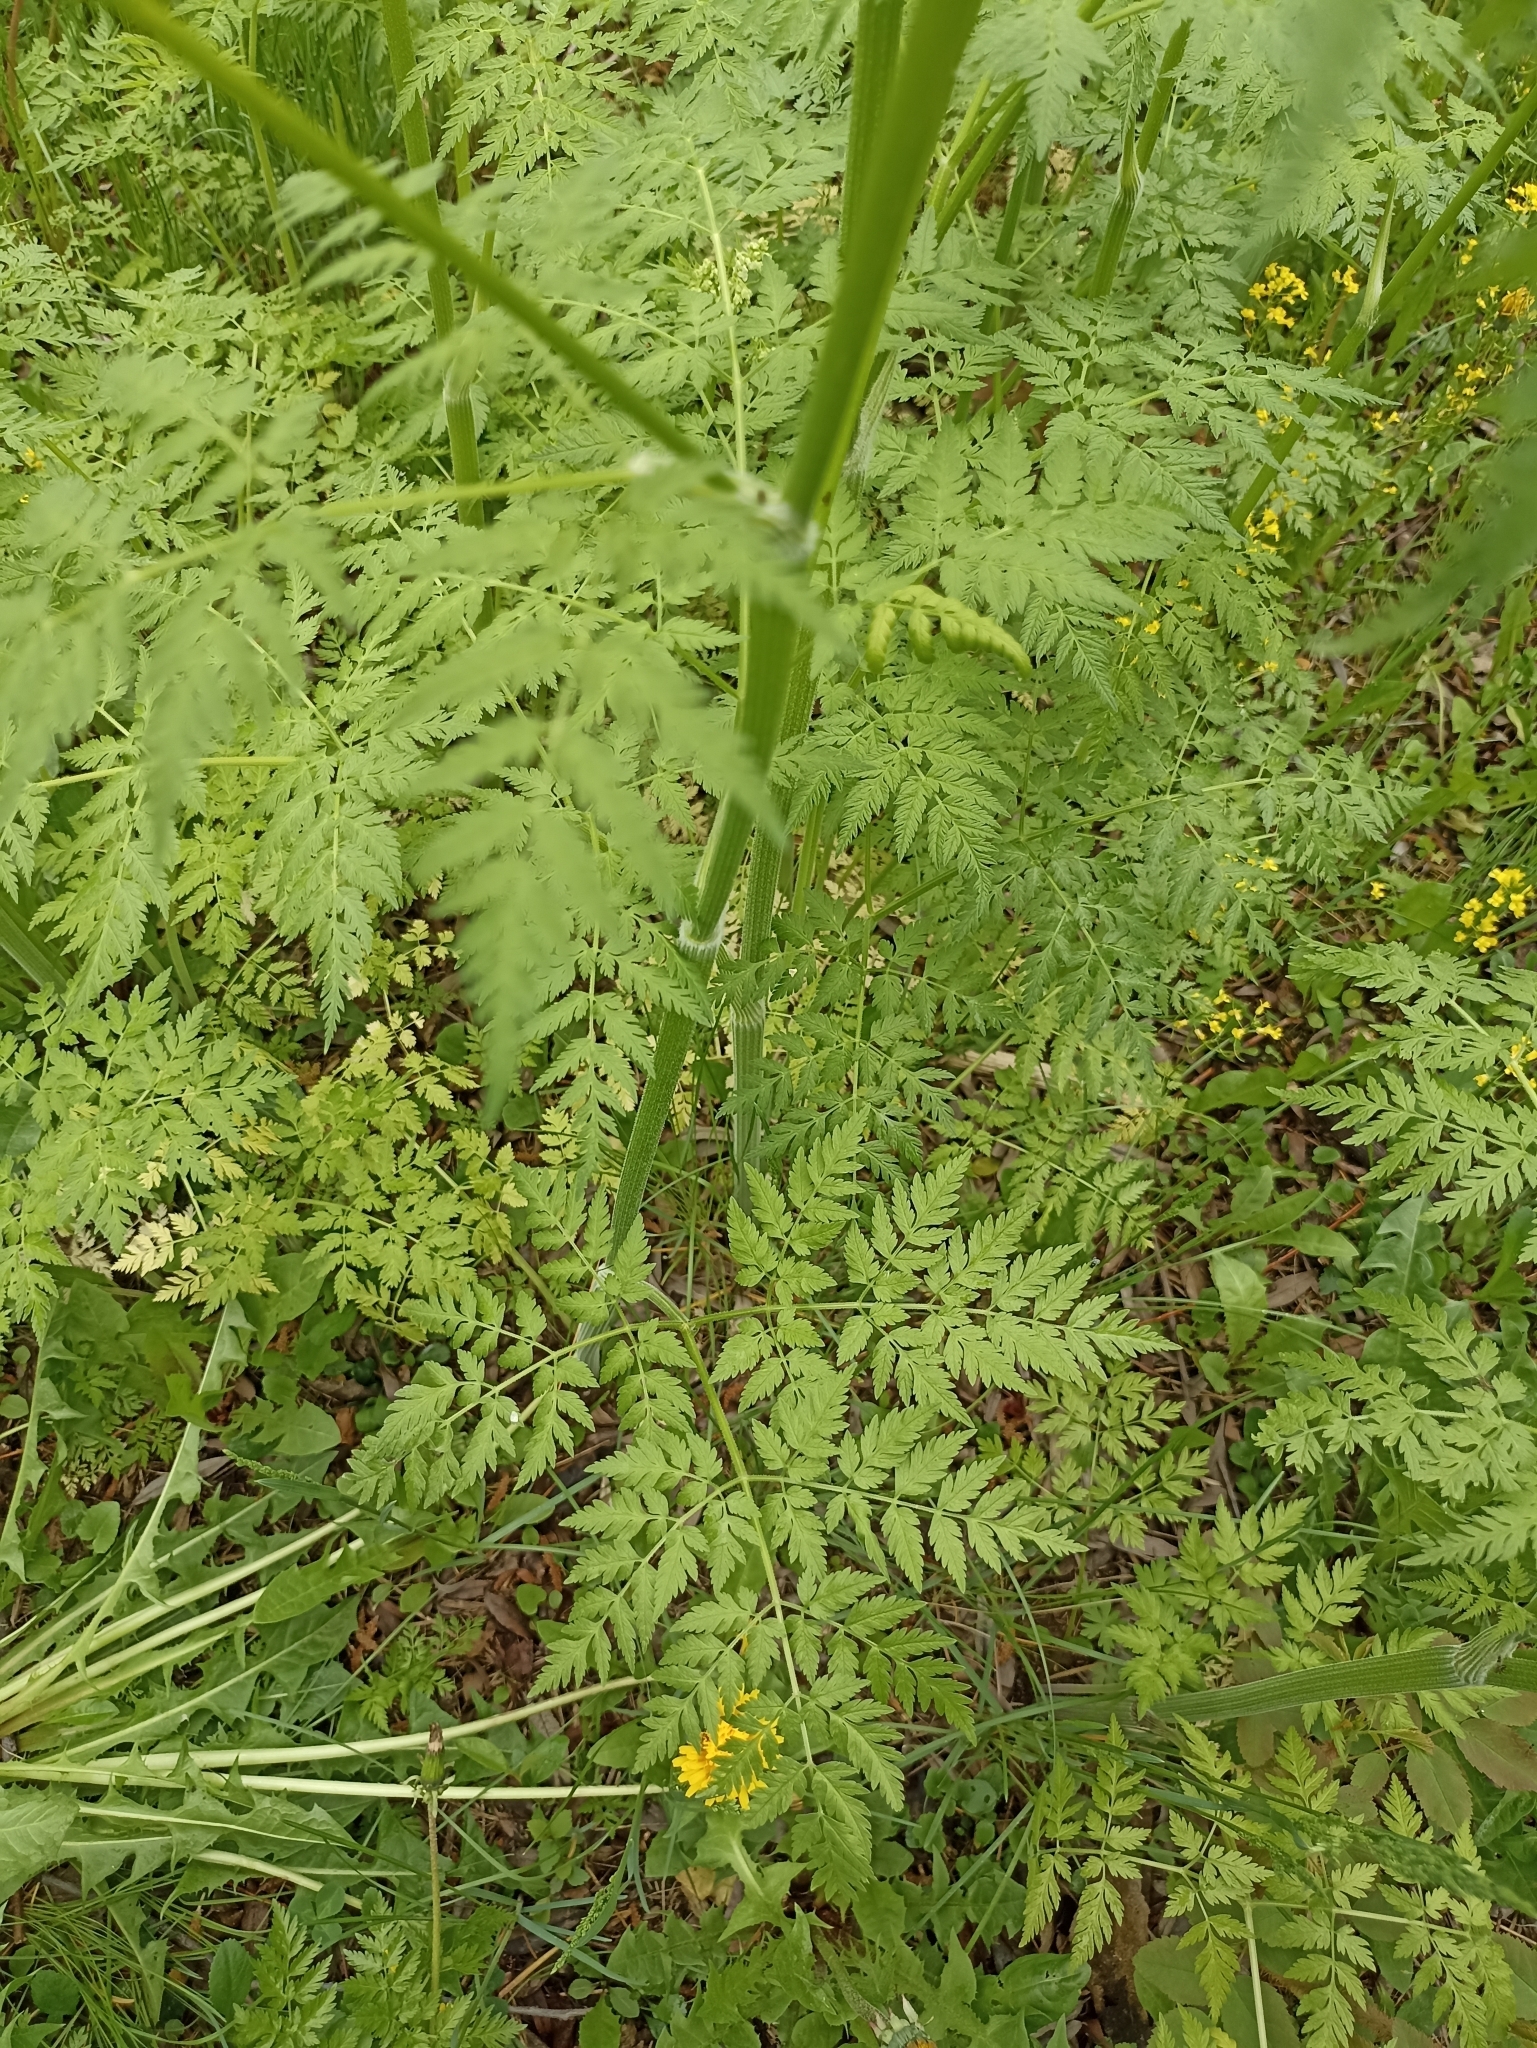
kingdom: Plantae
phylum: Tracheophyta
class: Magnoliopsida
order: Apiales
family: Apiaceae
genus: Anthriscus
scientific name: Anthriscus sylvestris
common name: Cow parsley
